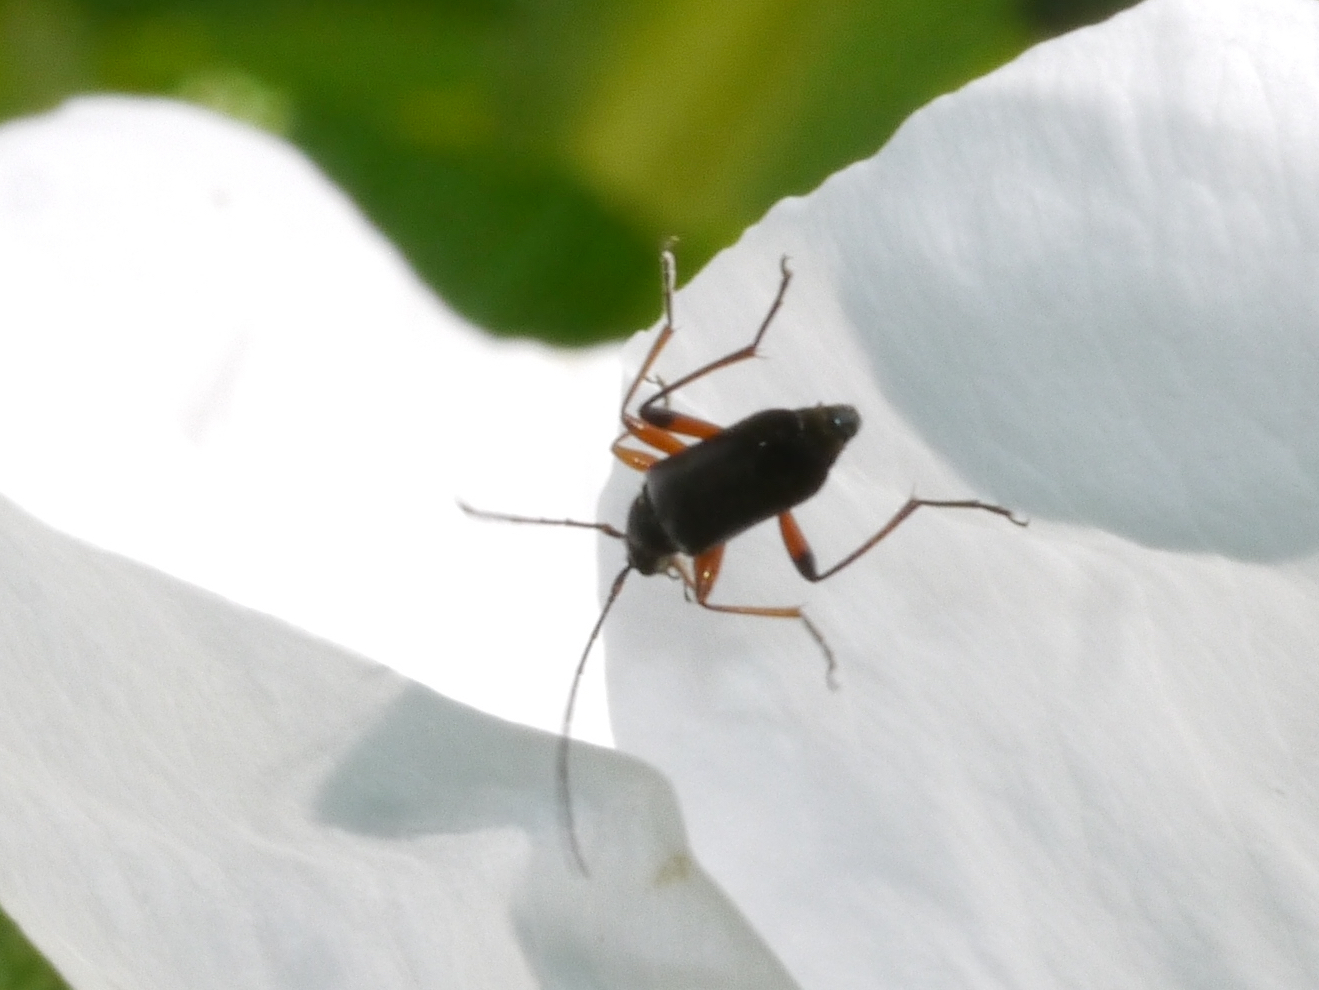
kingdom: Animalia
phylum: Arthropoda
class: Insecta
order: Coleoptera
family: Cerambycidae
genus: Grammoptera
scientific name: Grammoptera subargentata
